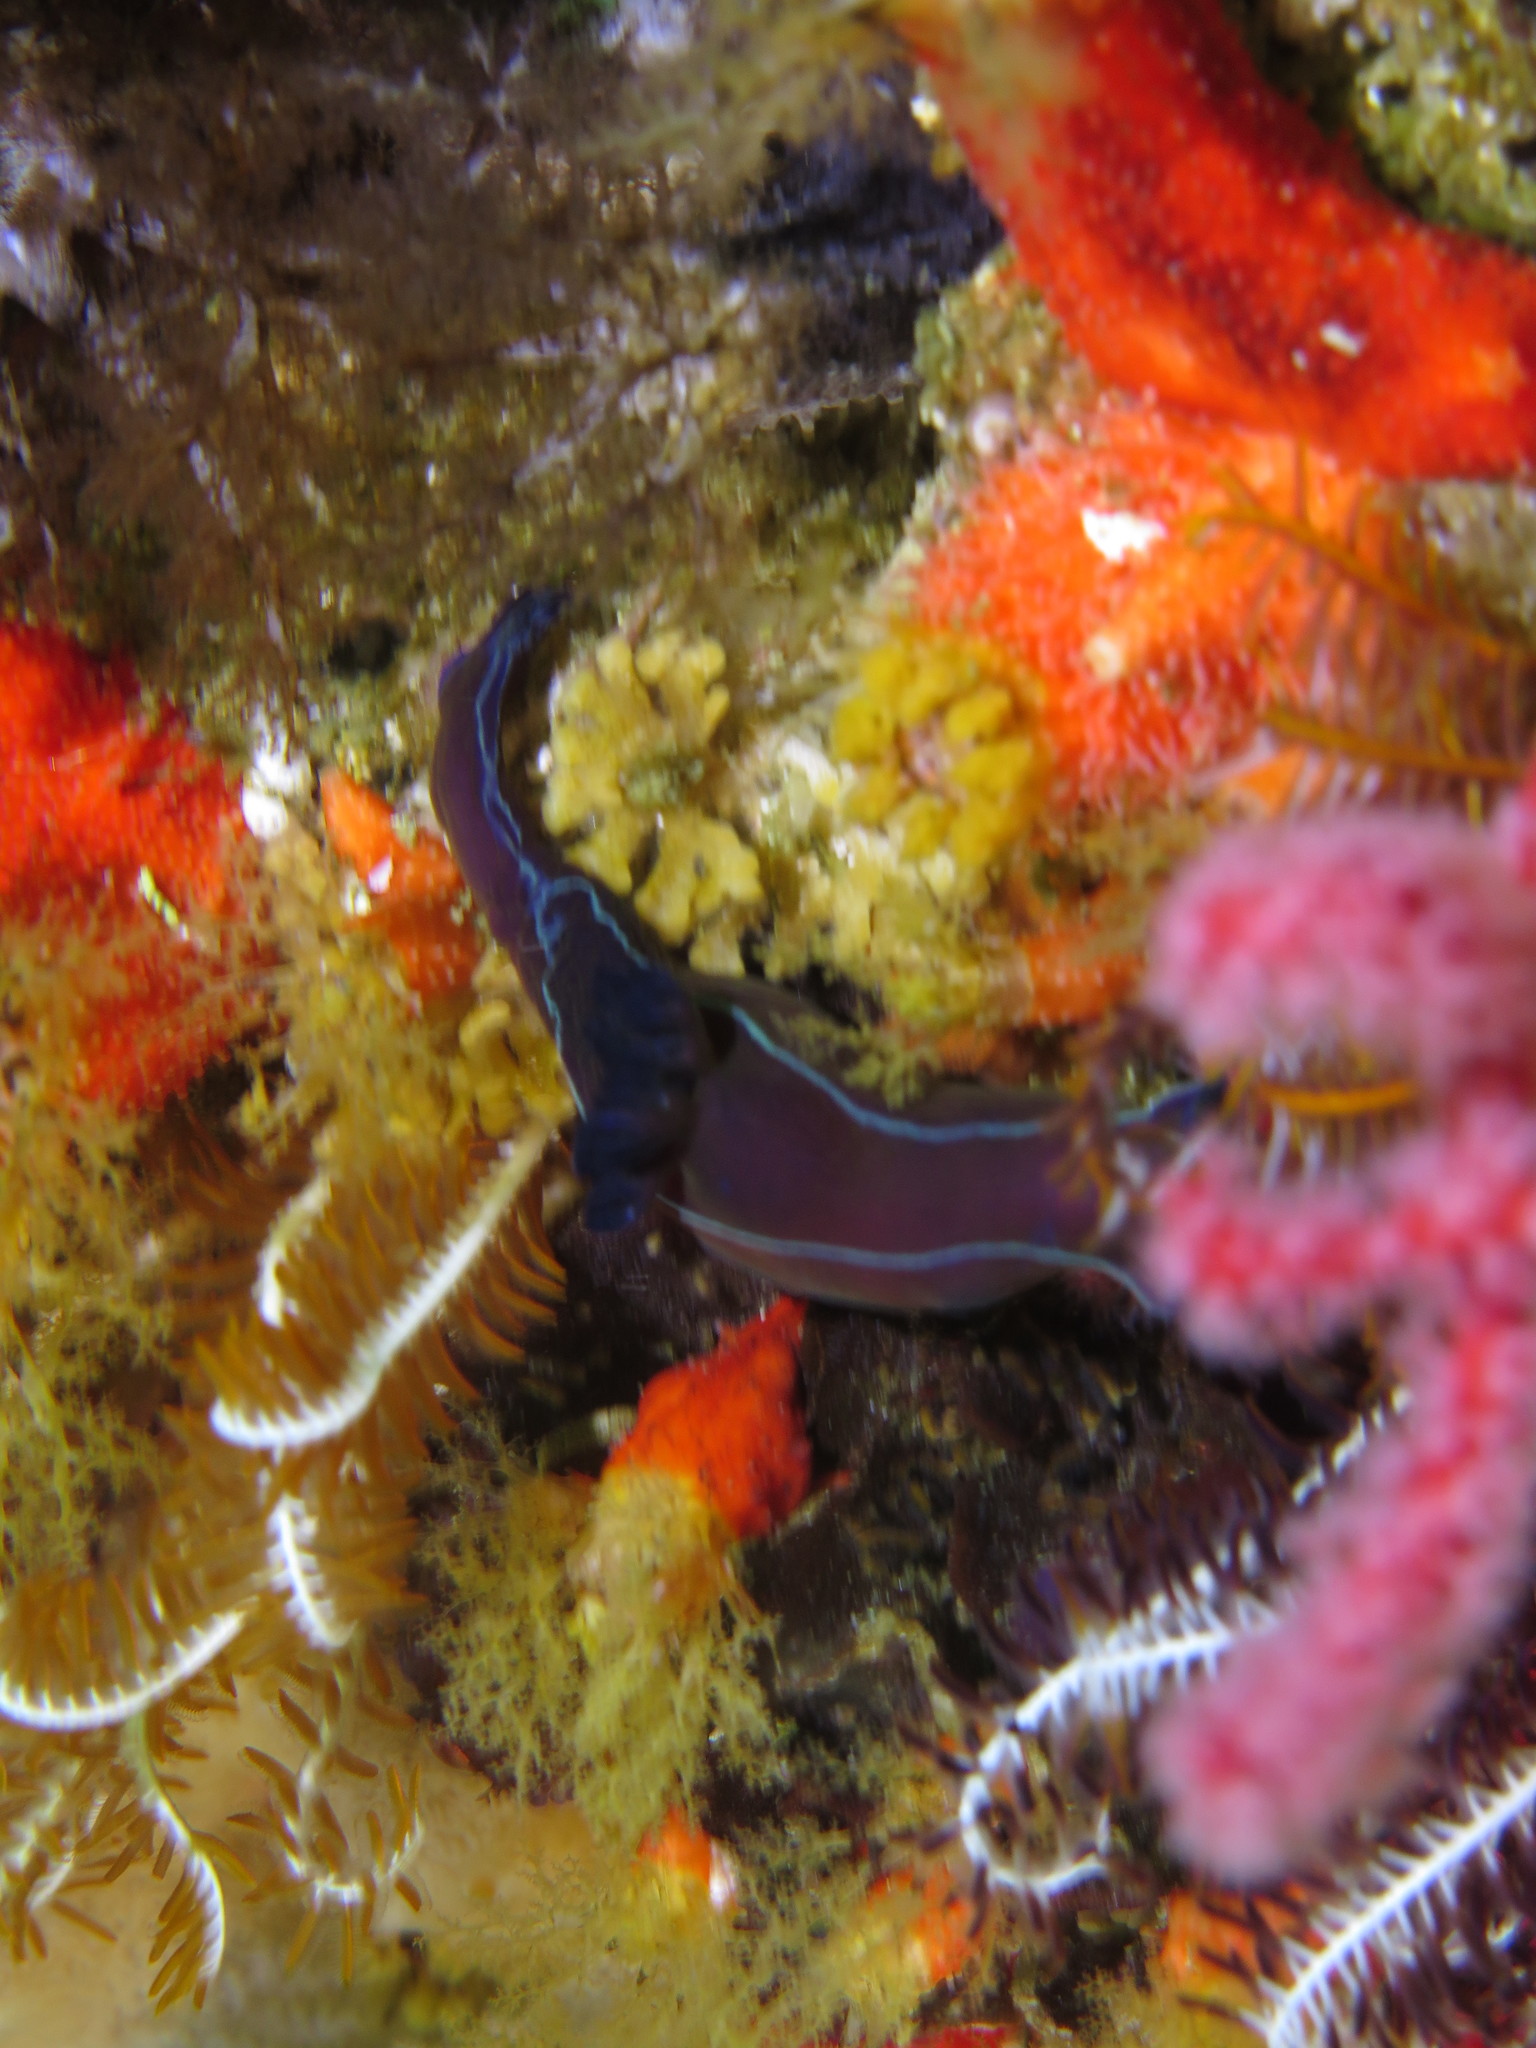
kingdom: Animalia
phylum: Mollusca
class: Gastropoda
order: Nudibranchia
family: Polyceridae
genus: Tambja
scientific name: Tambja capensis
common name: Black nudibranch
